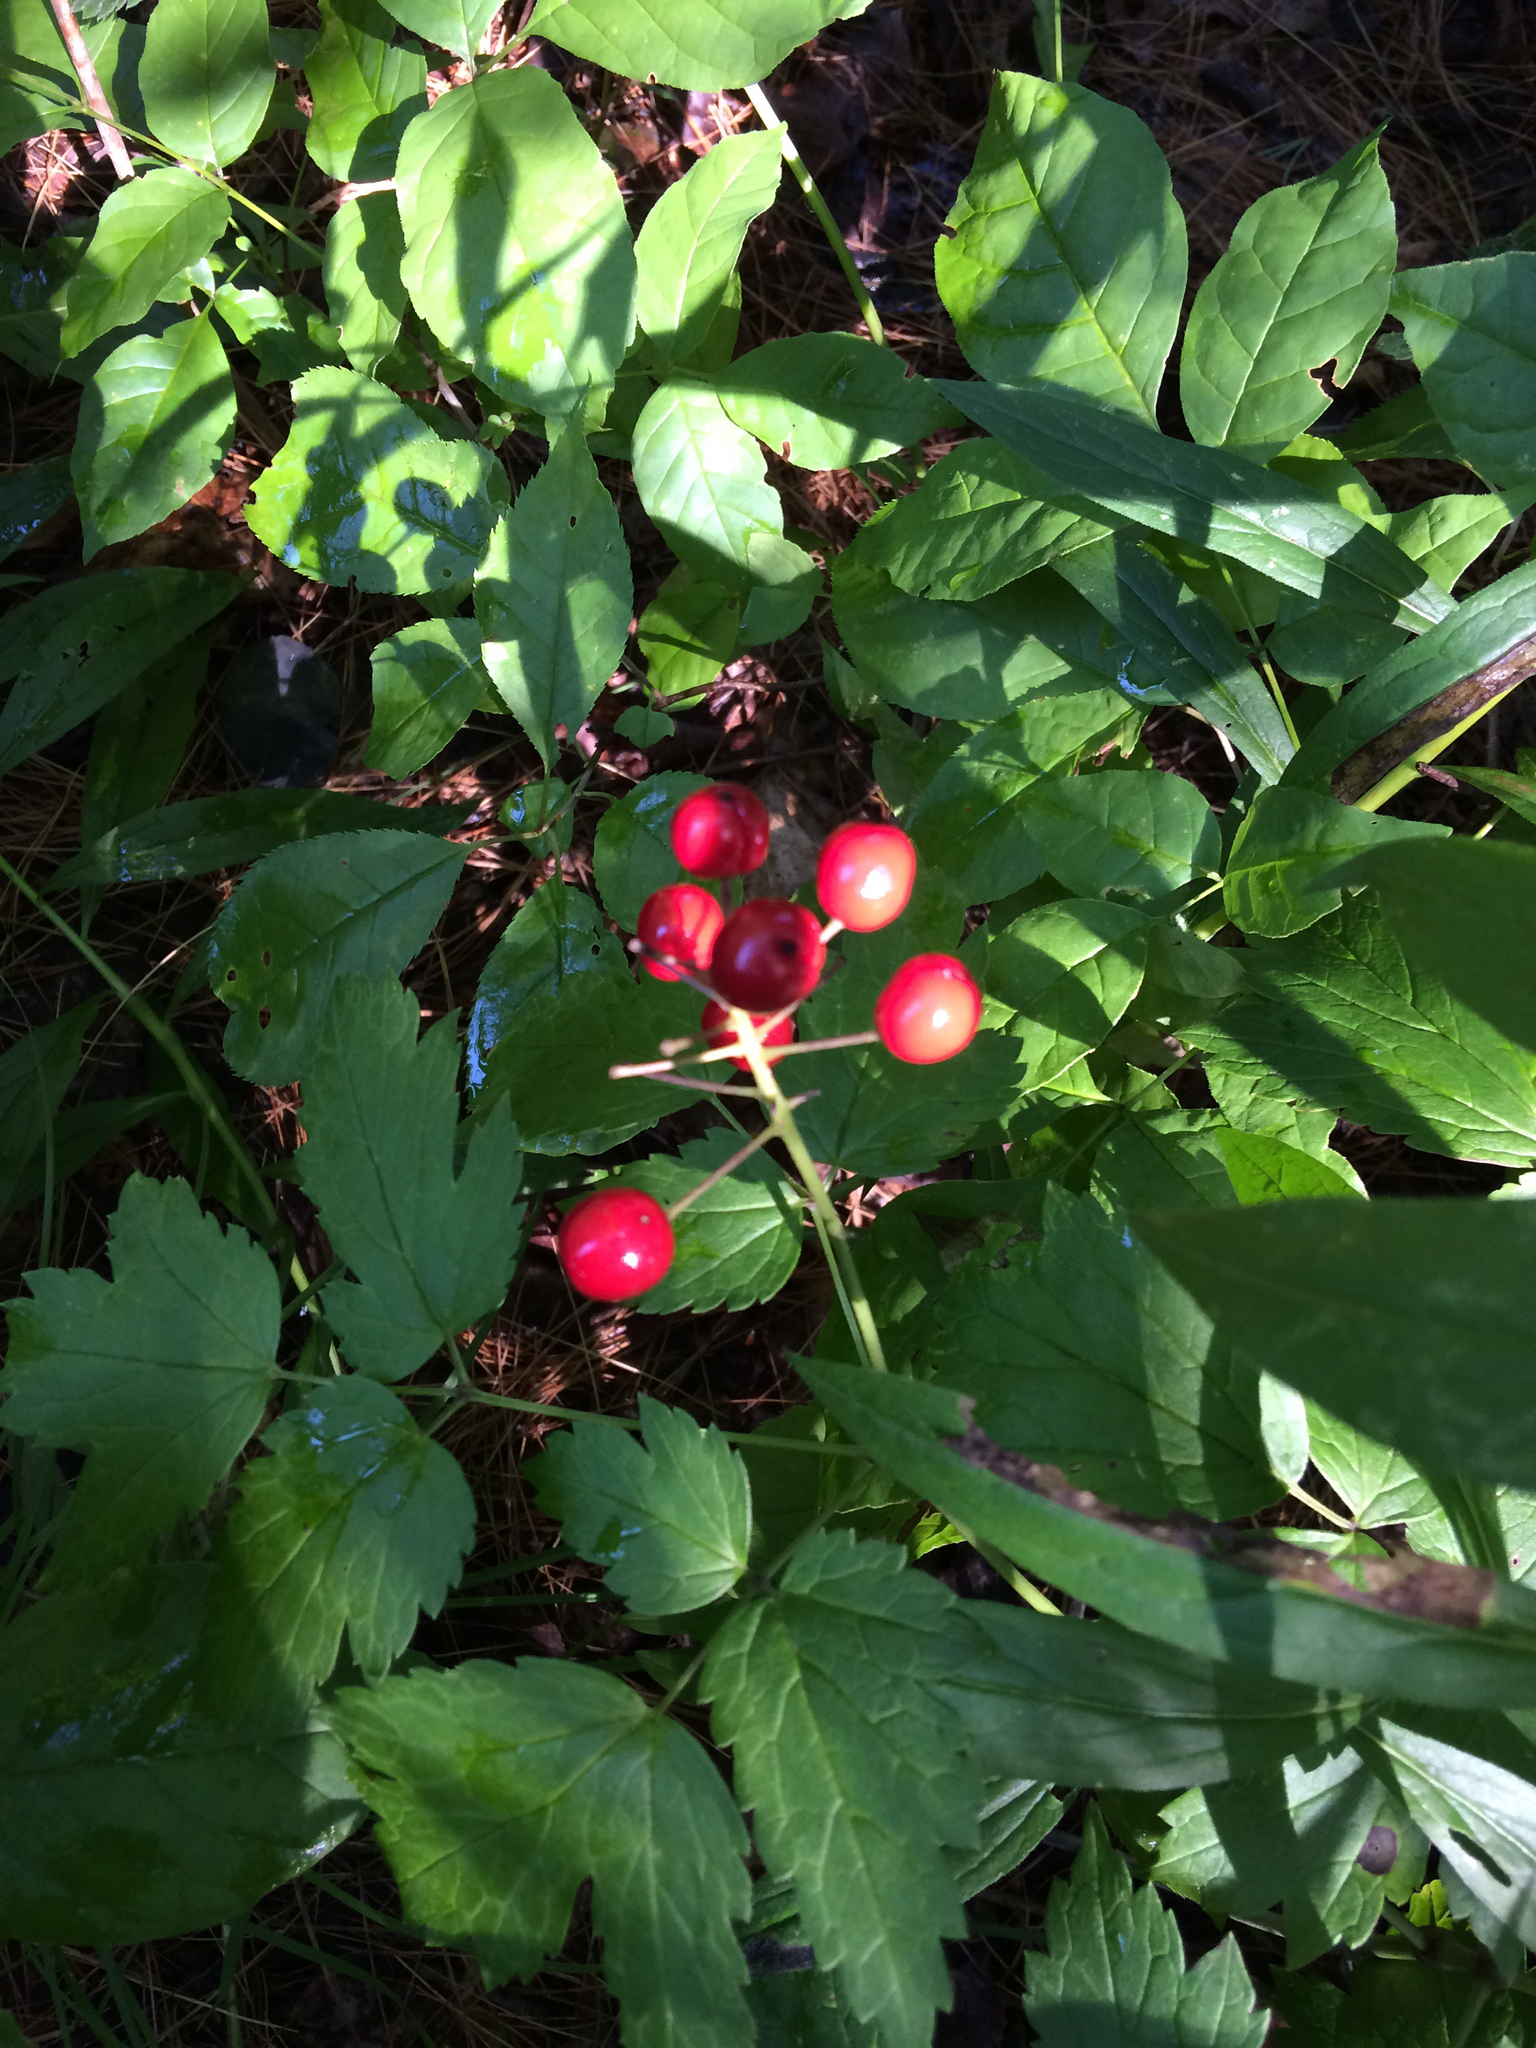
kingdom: Plantae
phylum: Tracheophyta
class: Magnoliopsida
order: Ranunculales
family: Ranunculaceae
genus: Actaea
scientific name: Actaea rubra
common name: Red baneberry
